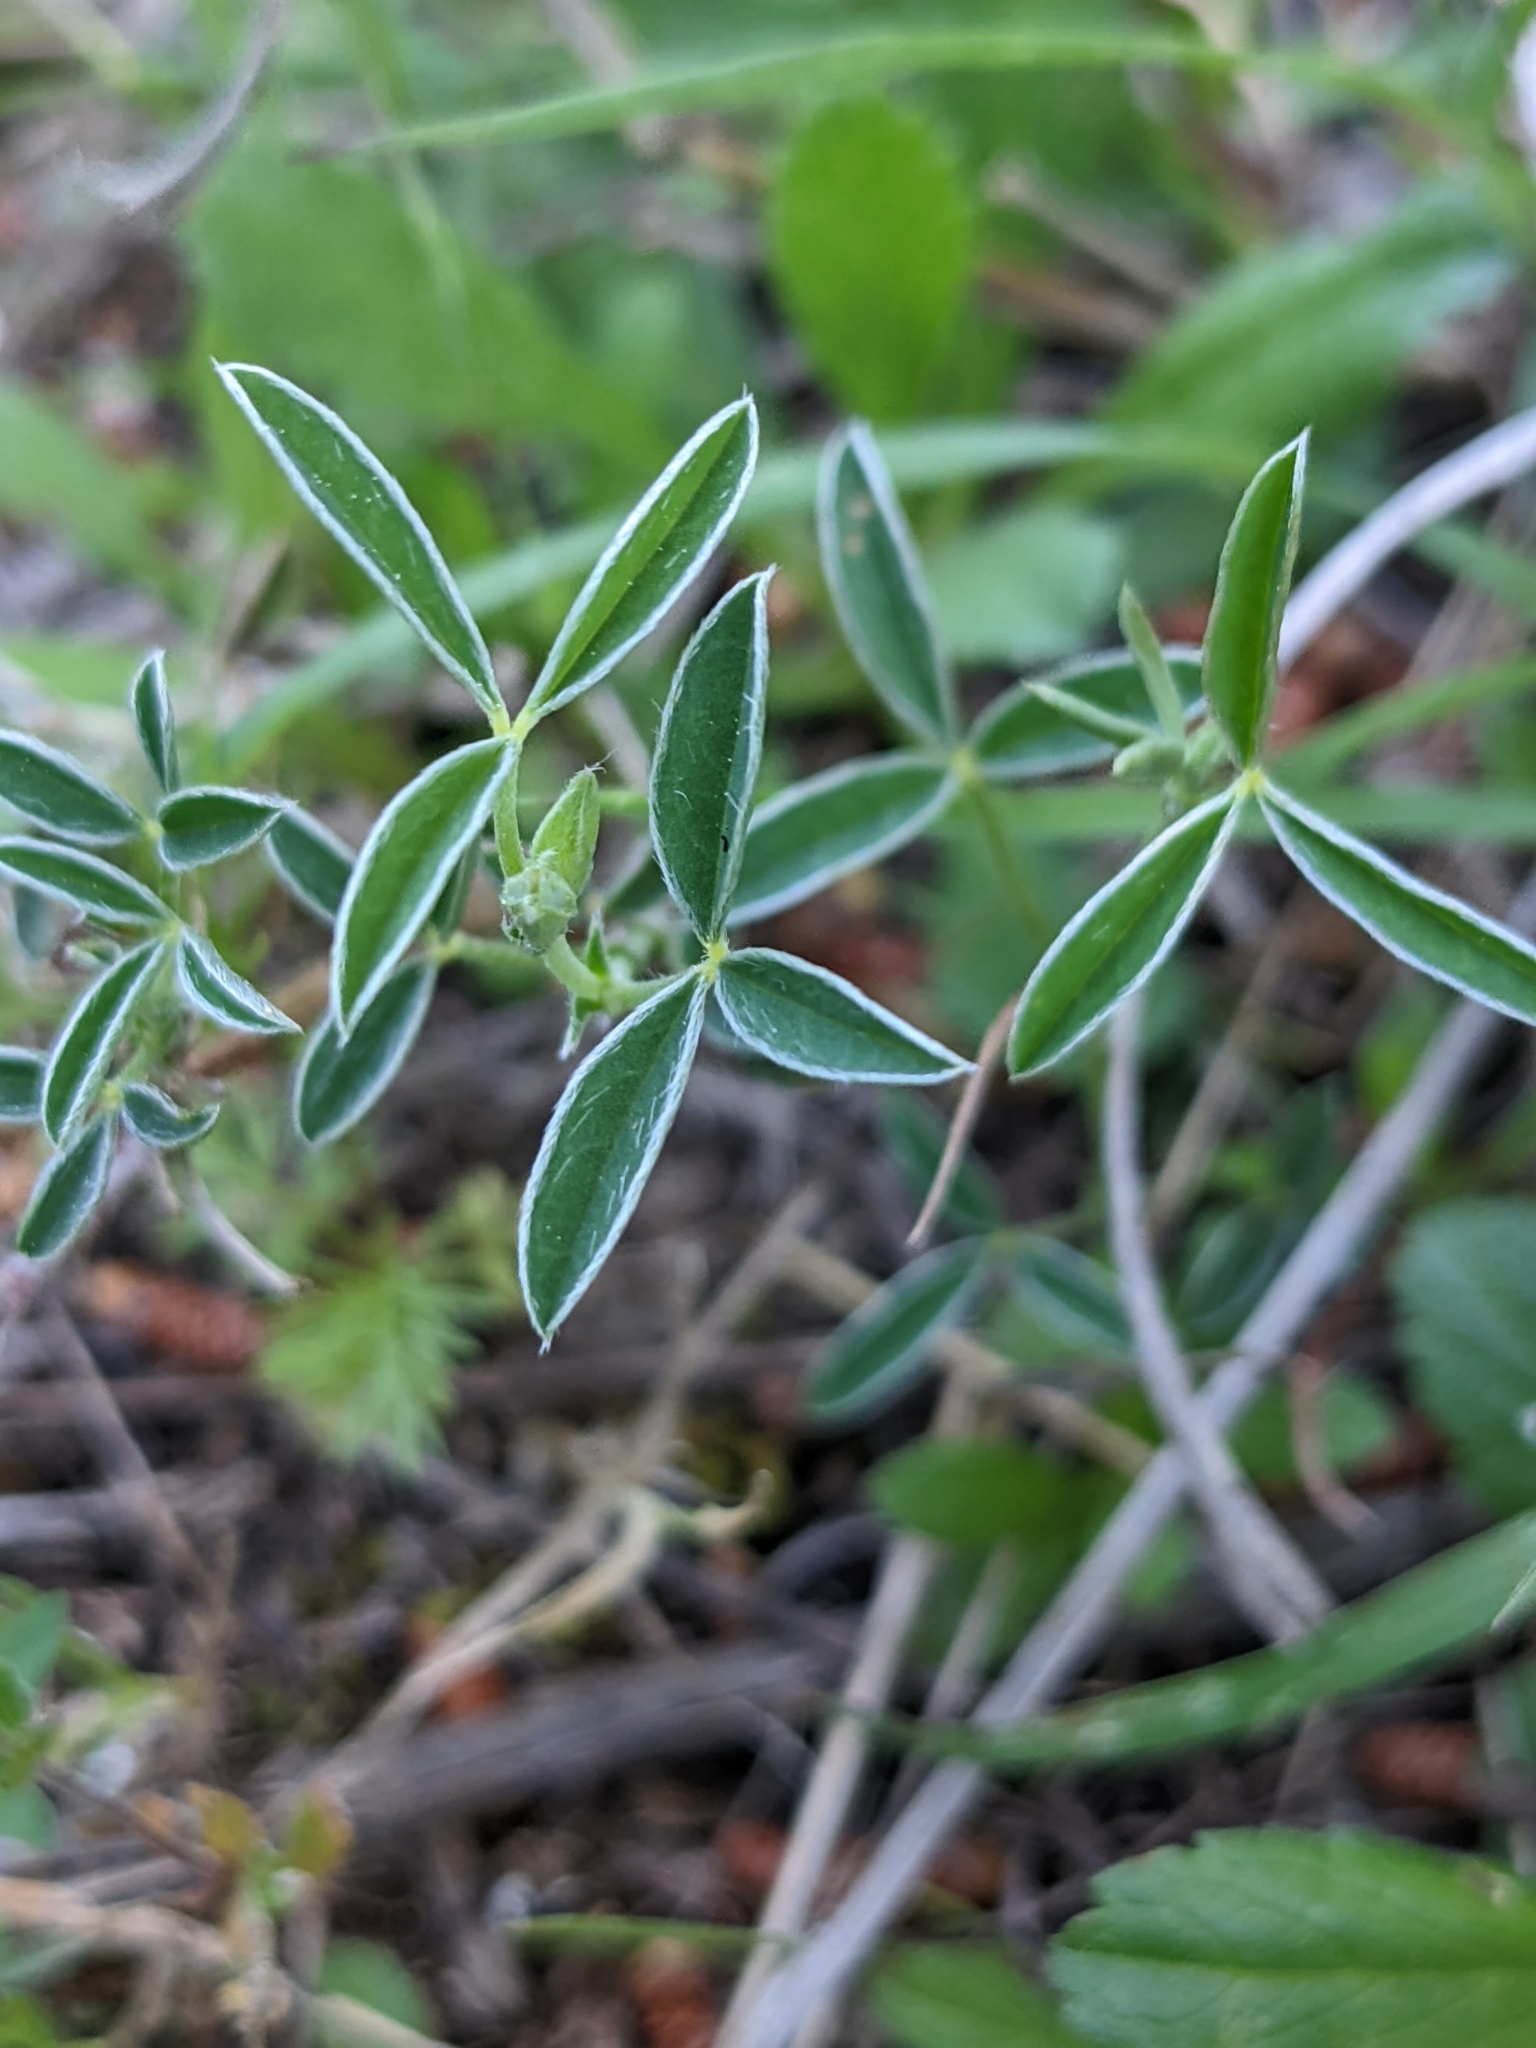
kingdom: Plantae
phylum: Tracheophyta
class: Magnoliopsida
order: Fabales
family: Fabaceae
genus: Argyrolobium
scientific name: Argyrolobium zanonii
